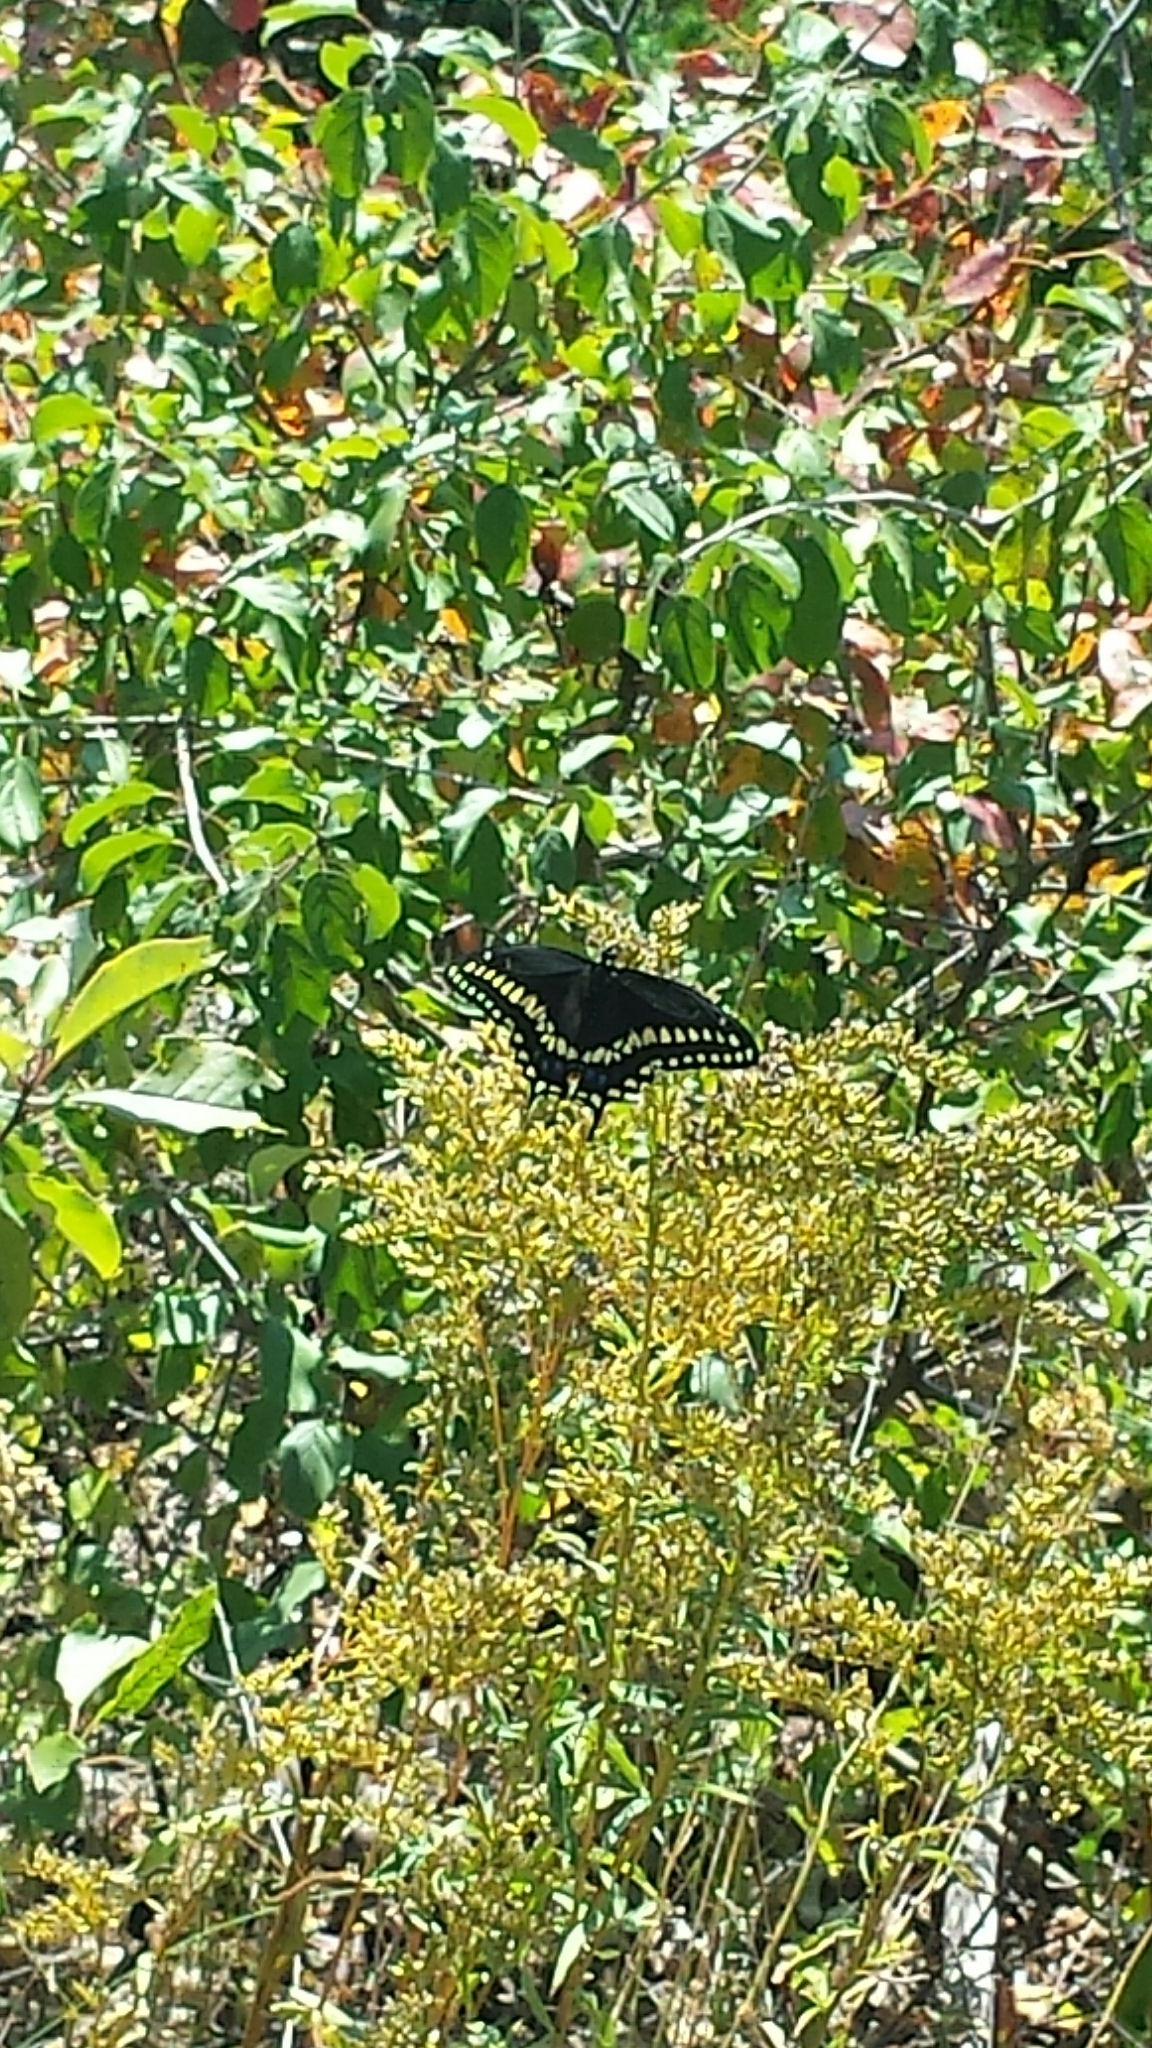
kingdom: Animalia
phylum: Arthropoda
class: Insecta
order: Lepidoptera
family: Papilionidae
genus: Papilio
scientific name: Papilio polyxenes
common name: Black swallowtail
